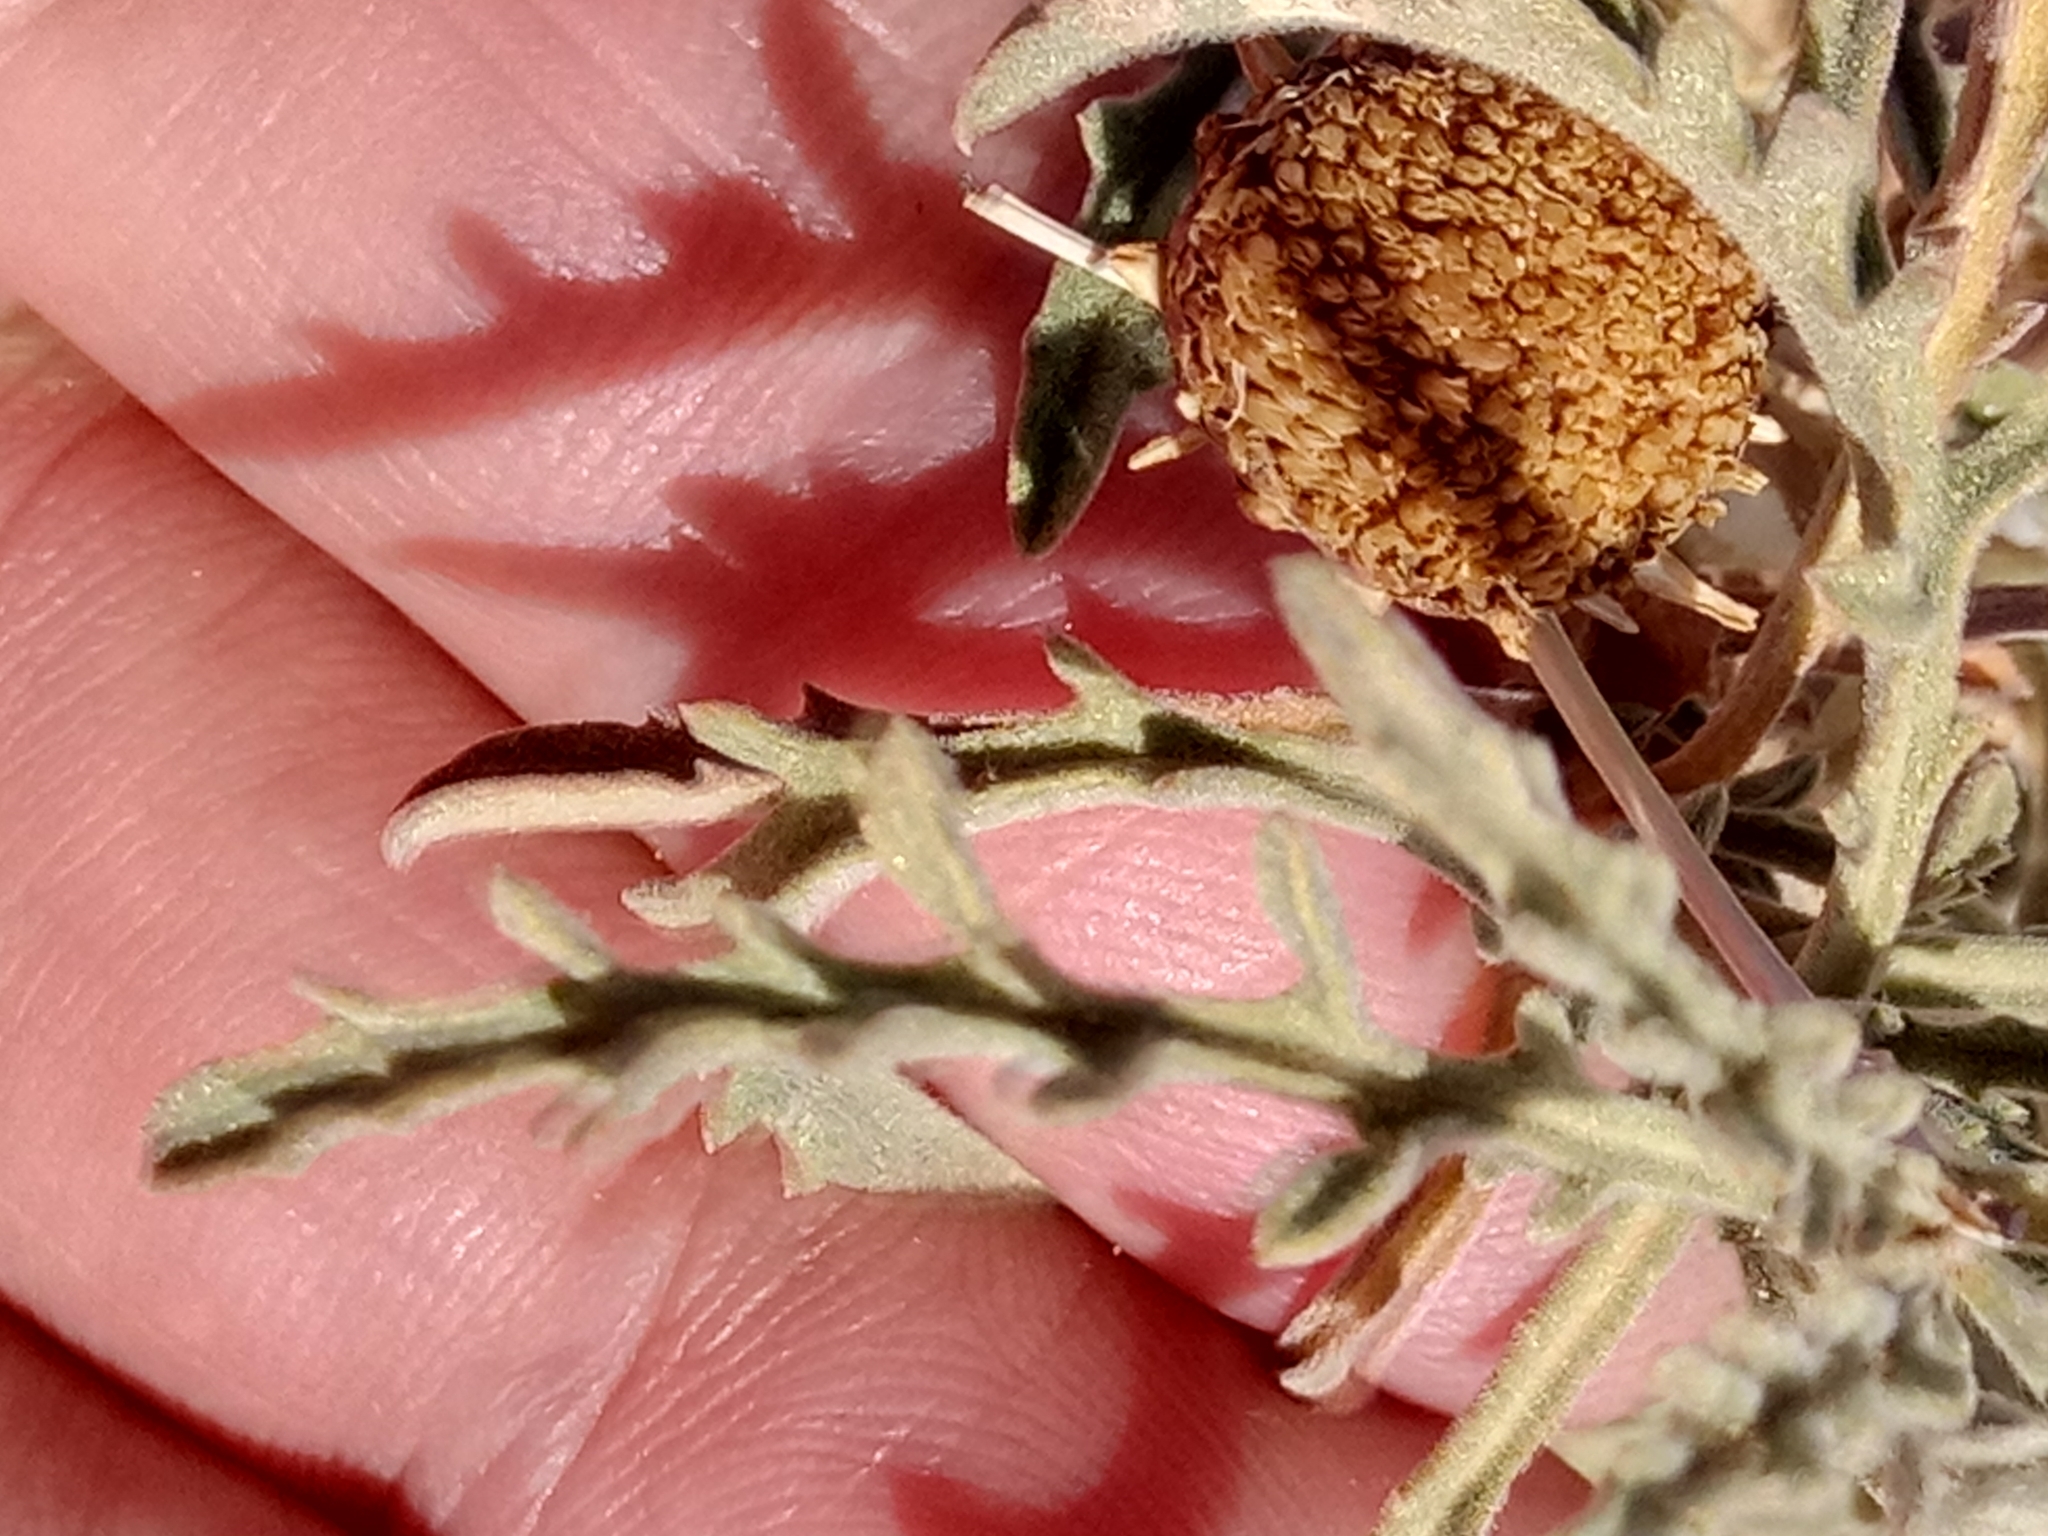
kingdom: Plantae
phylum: Tracheophyta
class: Magnoliopsida
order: Asterales
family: Asteraceae
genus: Asteriscus
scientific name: Asteriscus graveolens
